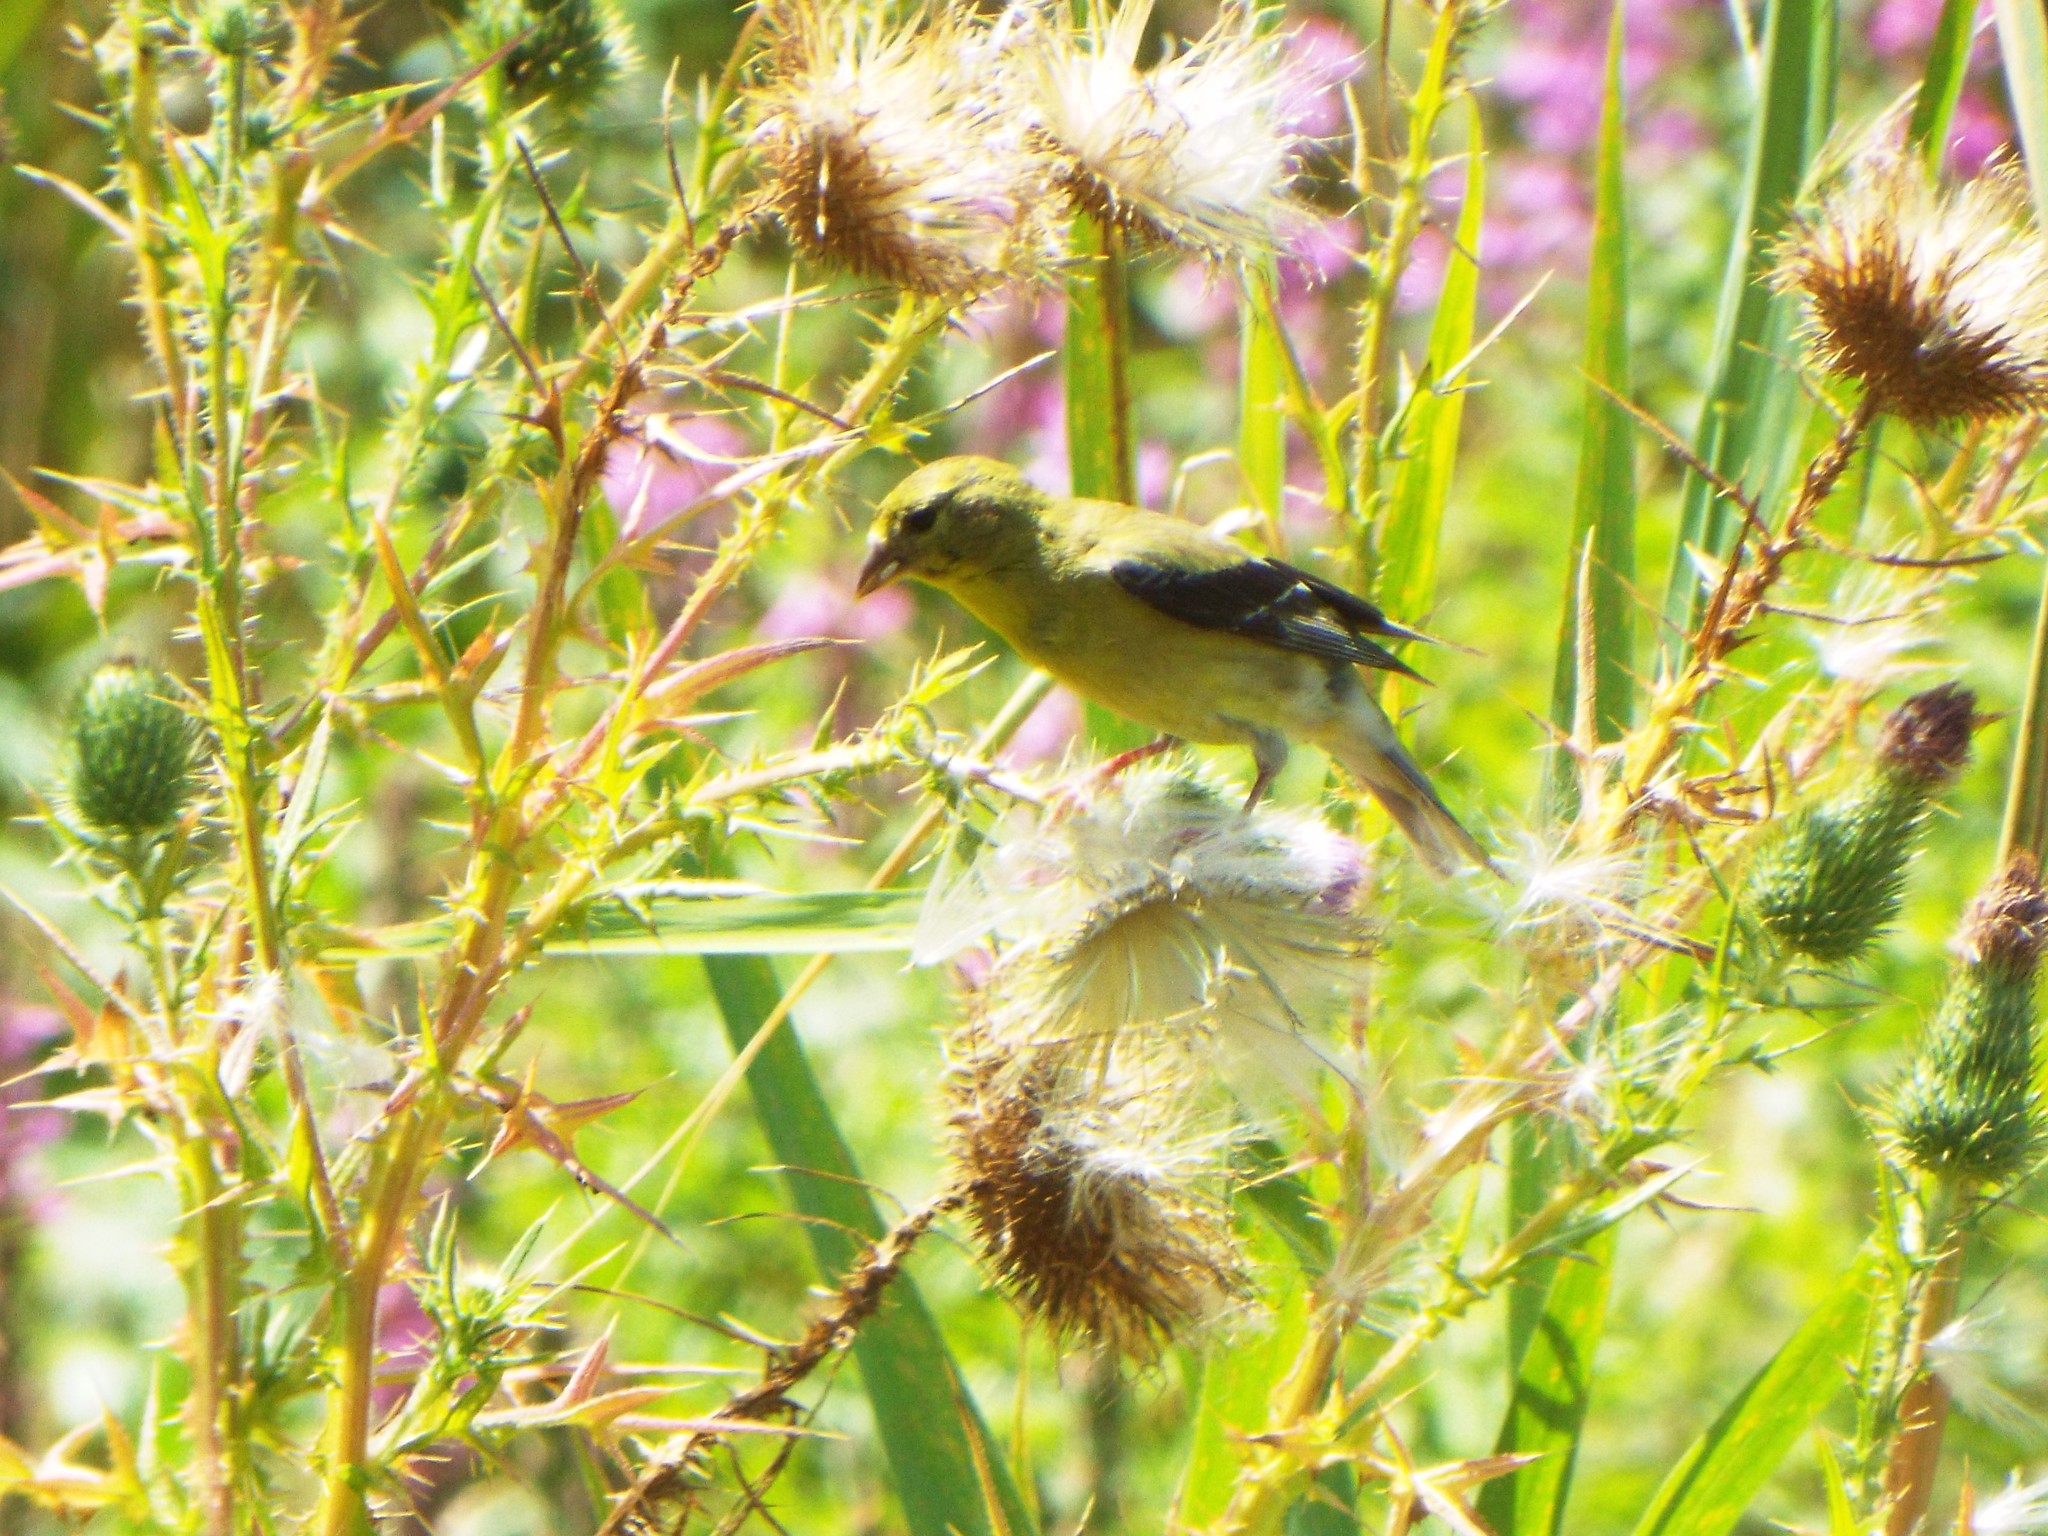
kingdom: Animalia
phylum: Chordata
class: Aves
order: Passeriformes
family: Fringillidae
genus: Spinus
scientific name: Spinus tristis
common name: American goldfinch
